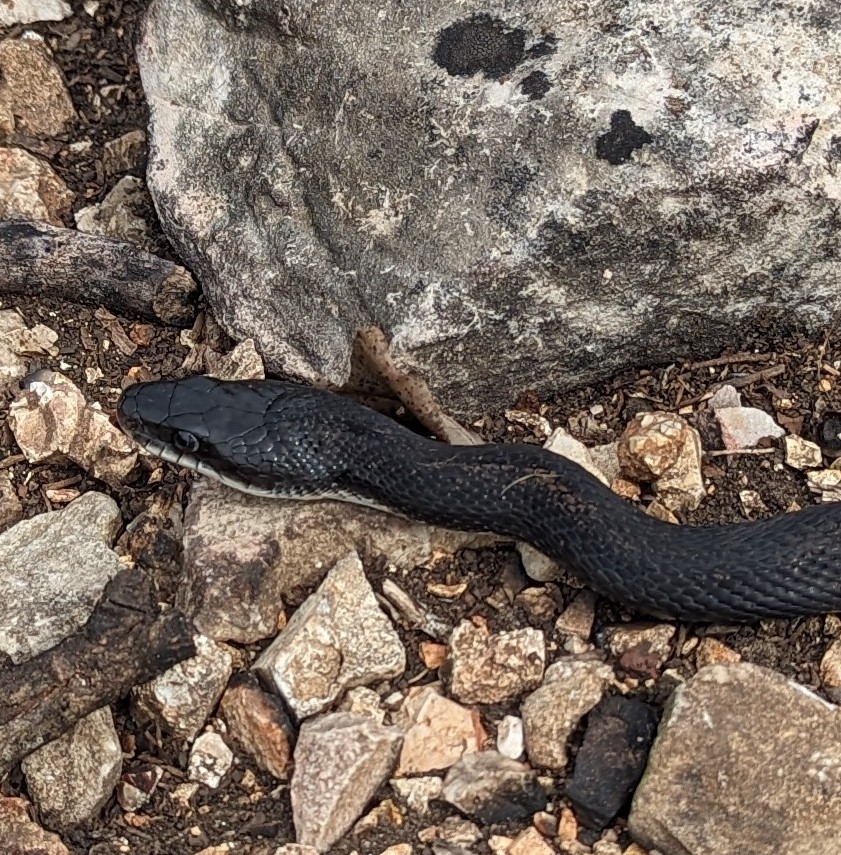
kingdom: Animalia
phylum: Chordata
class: Squamata
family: Colubridae
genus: Pantherophis
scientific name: Pantherophis obsoletus
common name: Black rat snake
